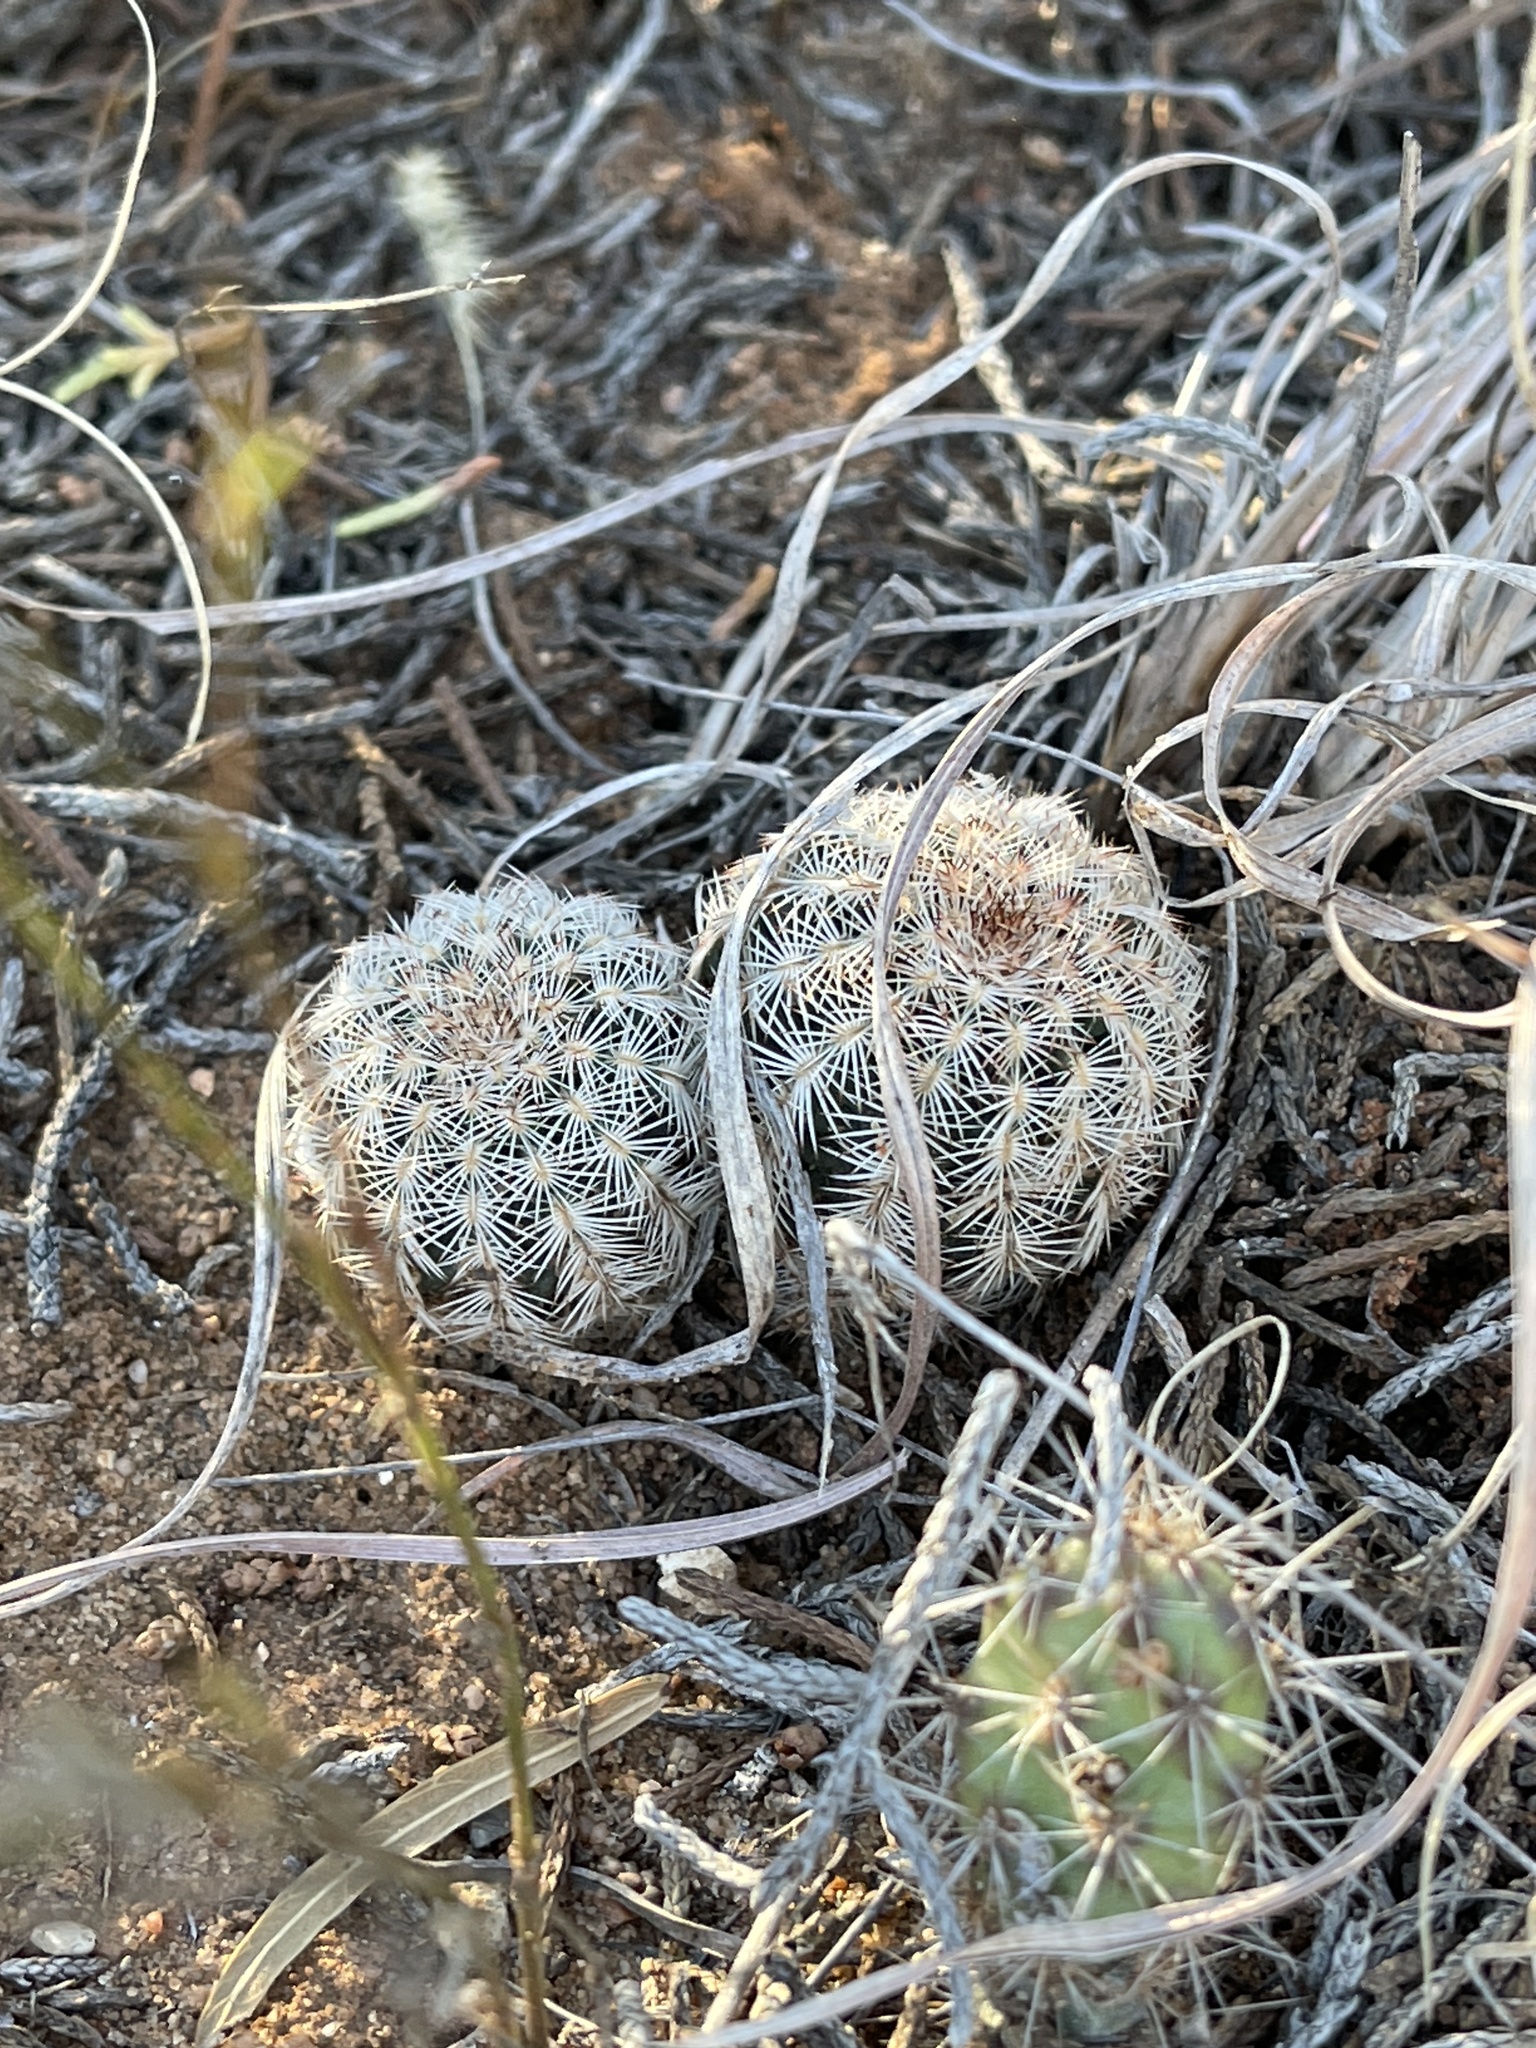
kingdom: Plantae
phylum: Tracheophyta
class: Magnoliopsida
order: Caryophyllales
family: Cactaceae
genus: Echinocereus
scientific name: Echinocereus reichenbachii
